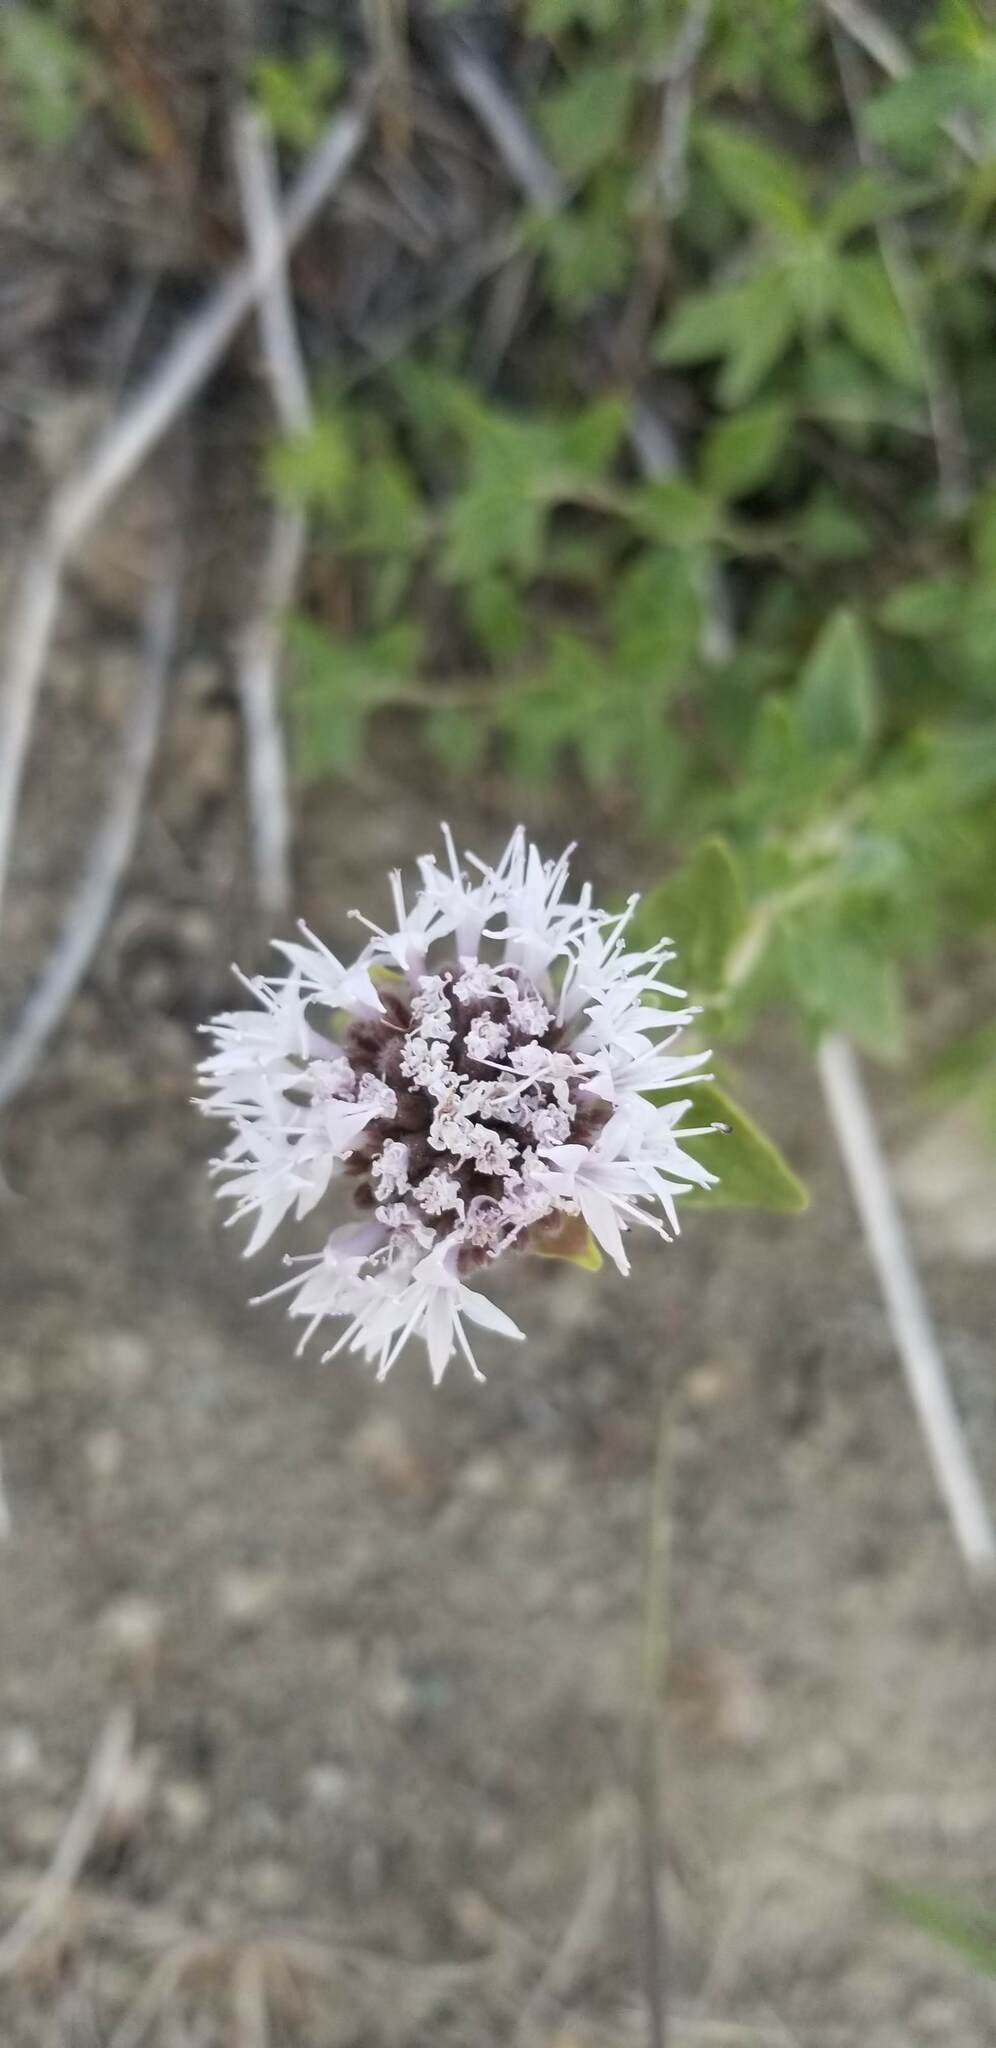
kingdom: Plantae
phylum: Tracheophyta
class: Magnoliopsida
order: Lamiales
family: Lamiaceae
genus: Monardella
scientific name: Monardella odoratissima
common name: Pacific monardella
